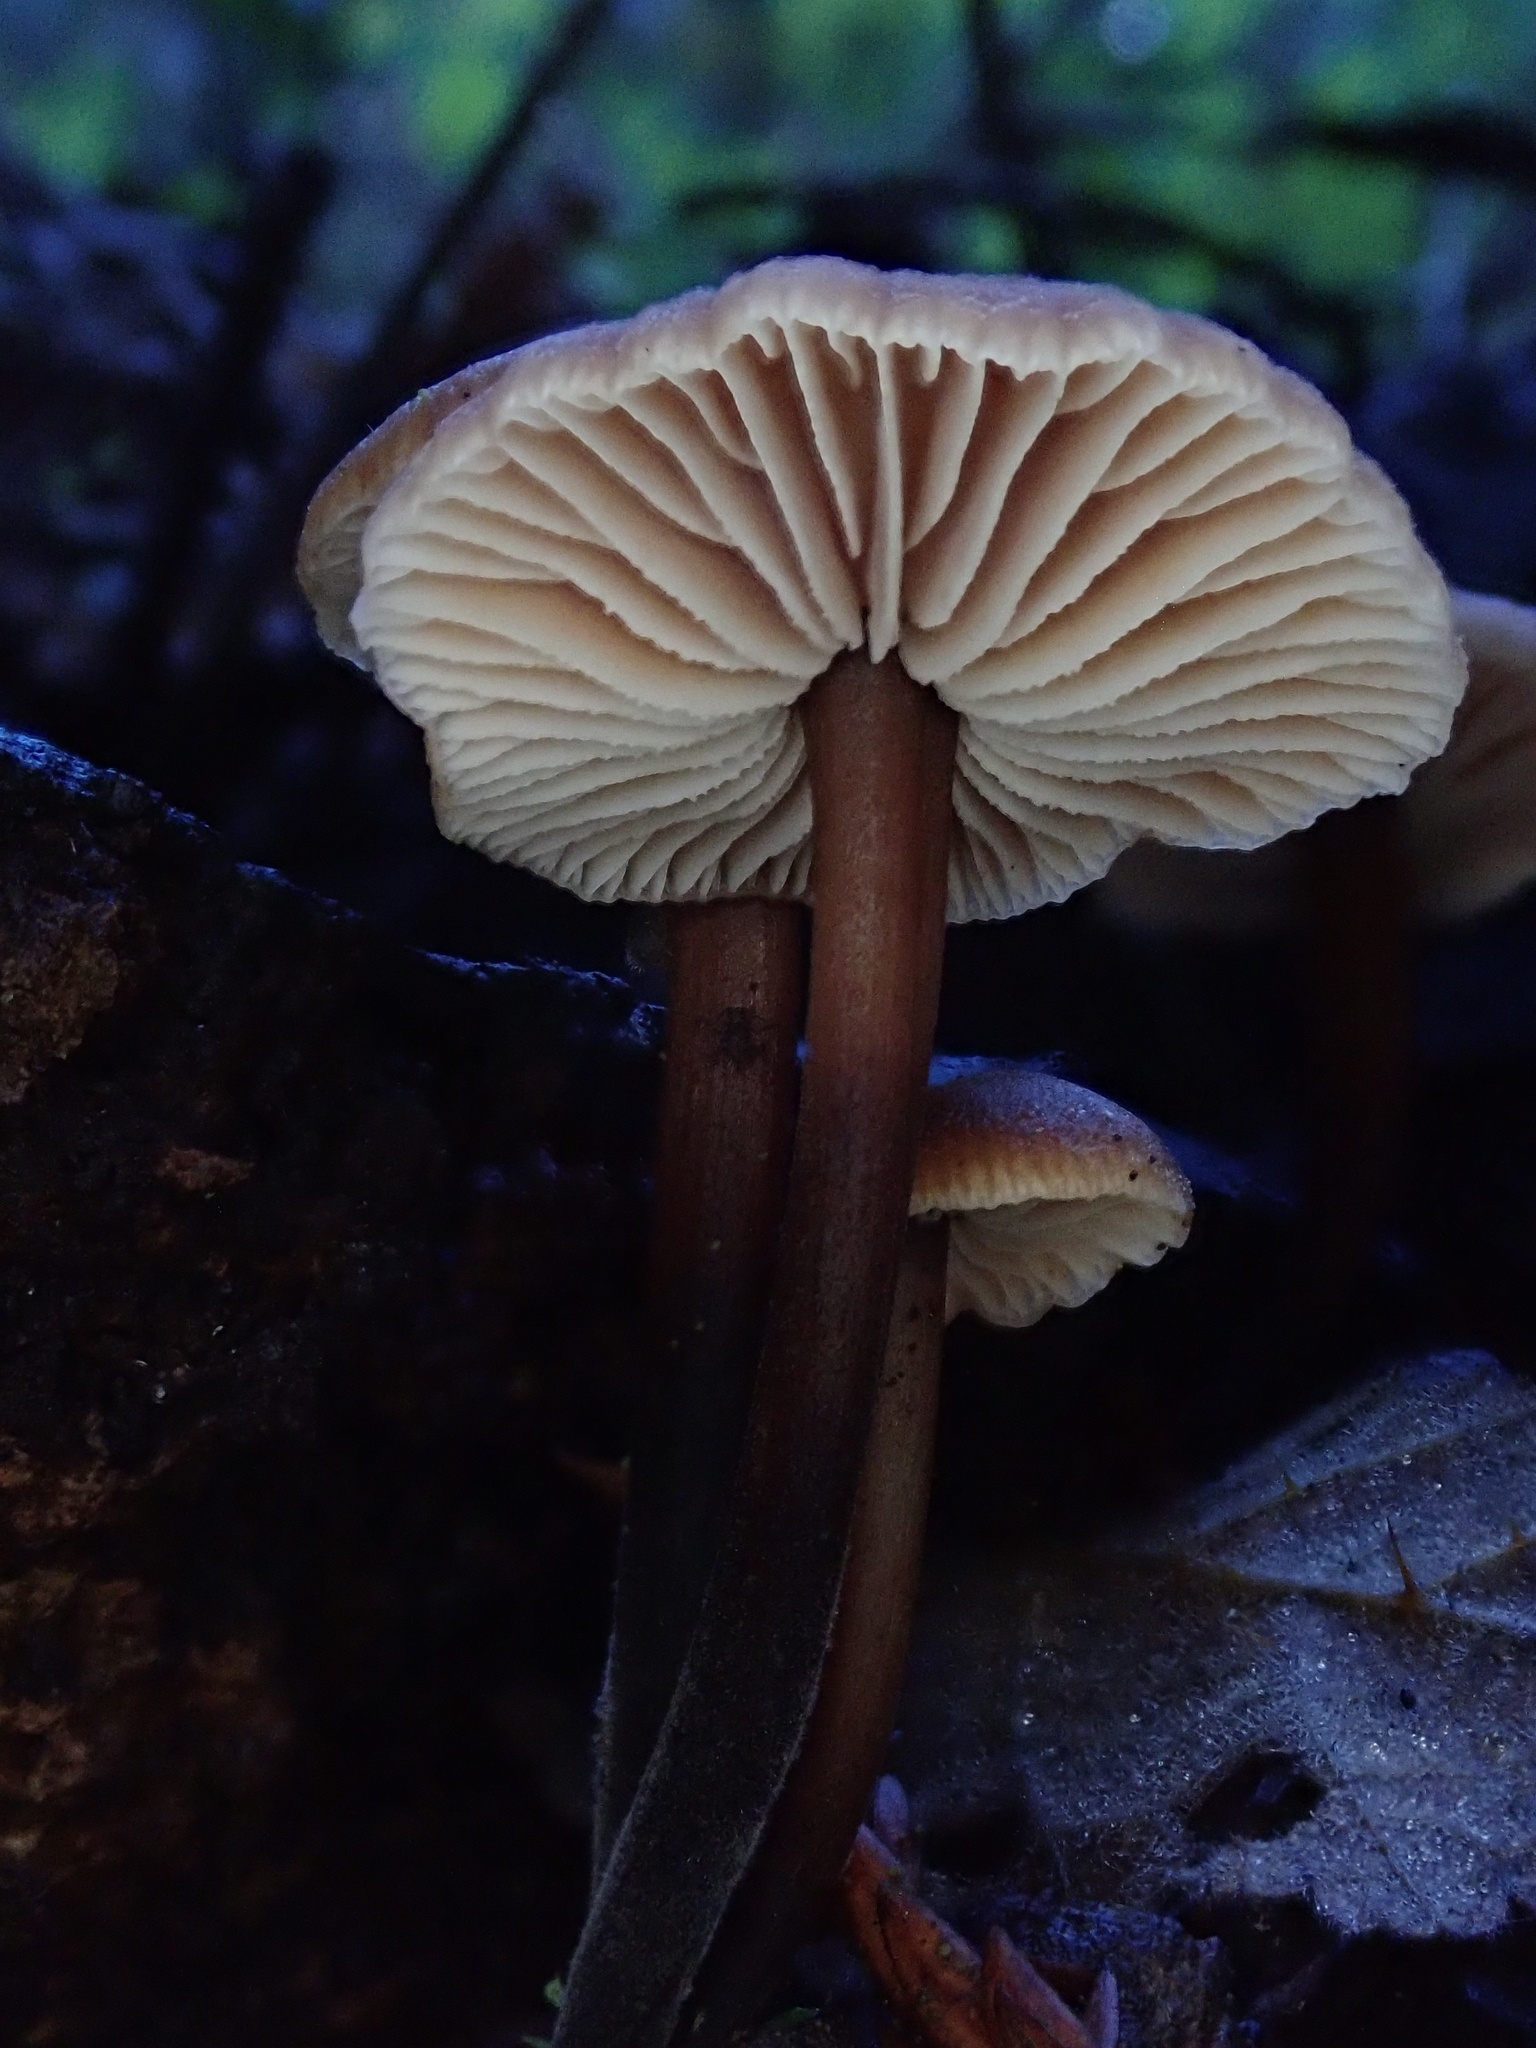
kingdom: Fungi
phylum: Basidiomycota
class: Agaricomycetes
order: Agaricales
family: Omphalotaceae
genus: Gymnopus
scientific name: Gymnopus brassicolens
